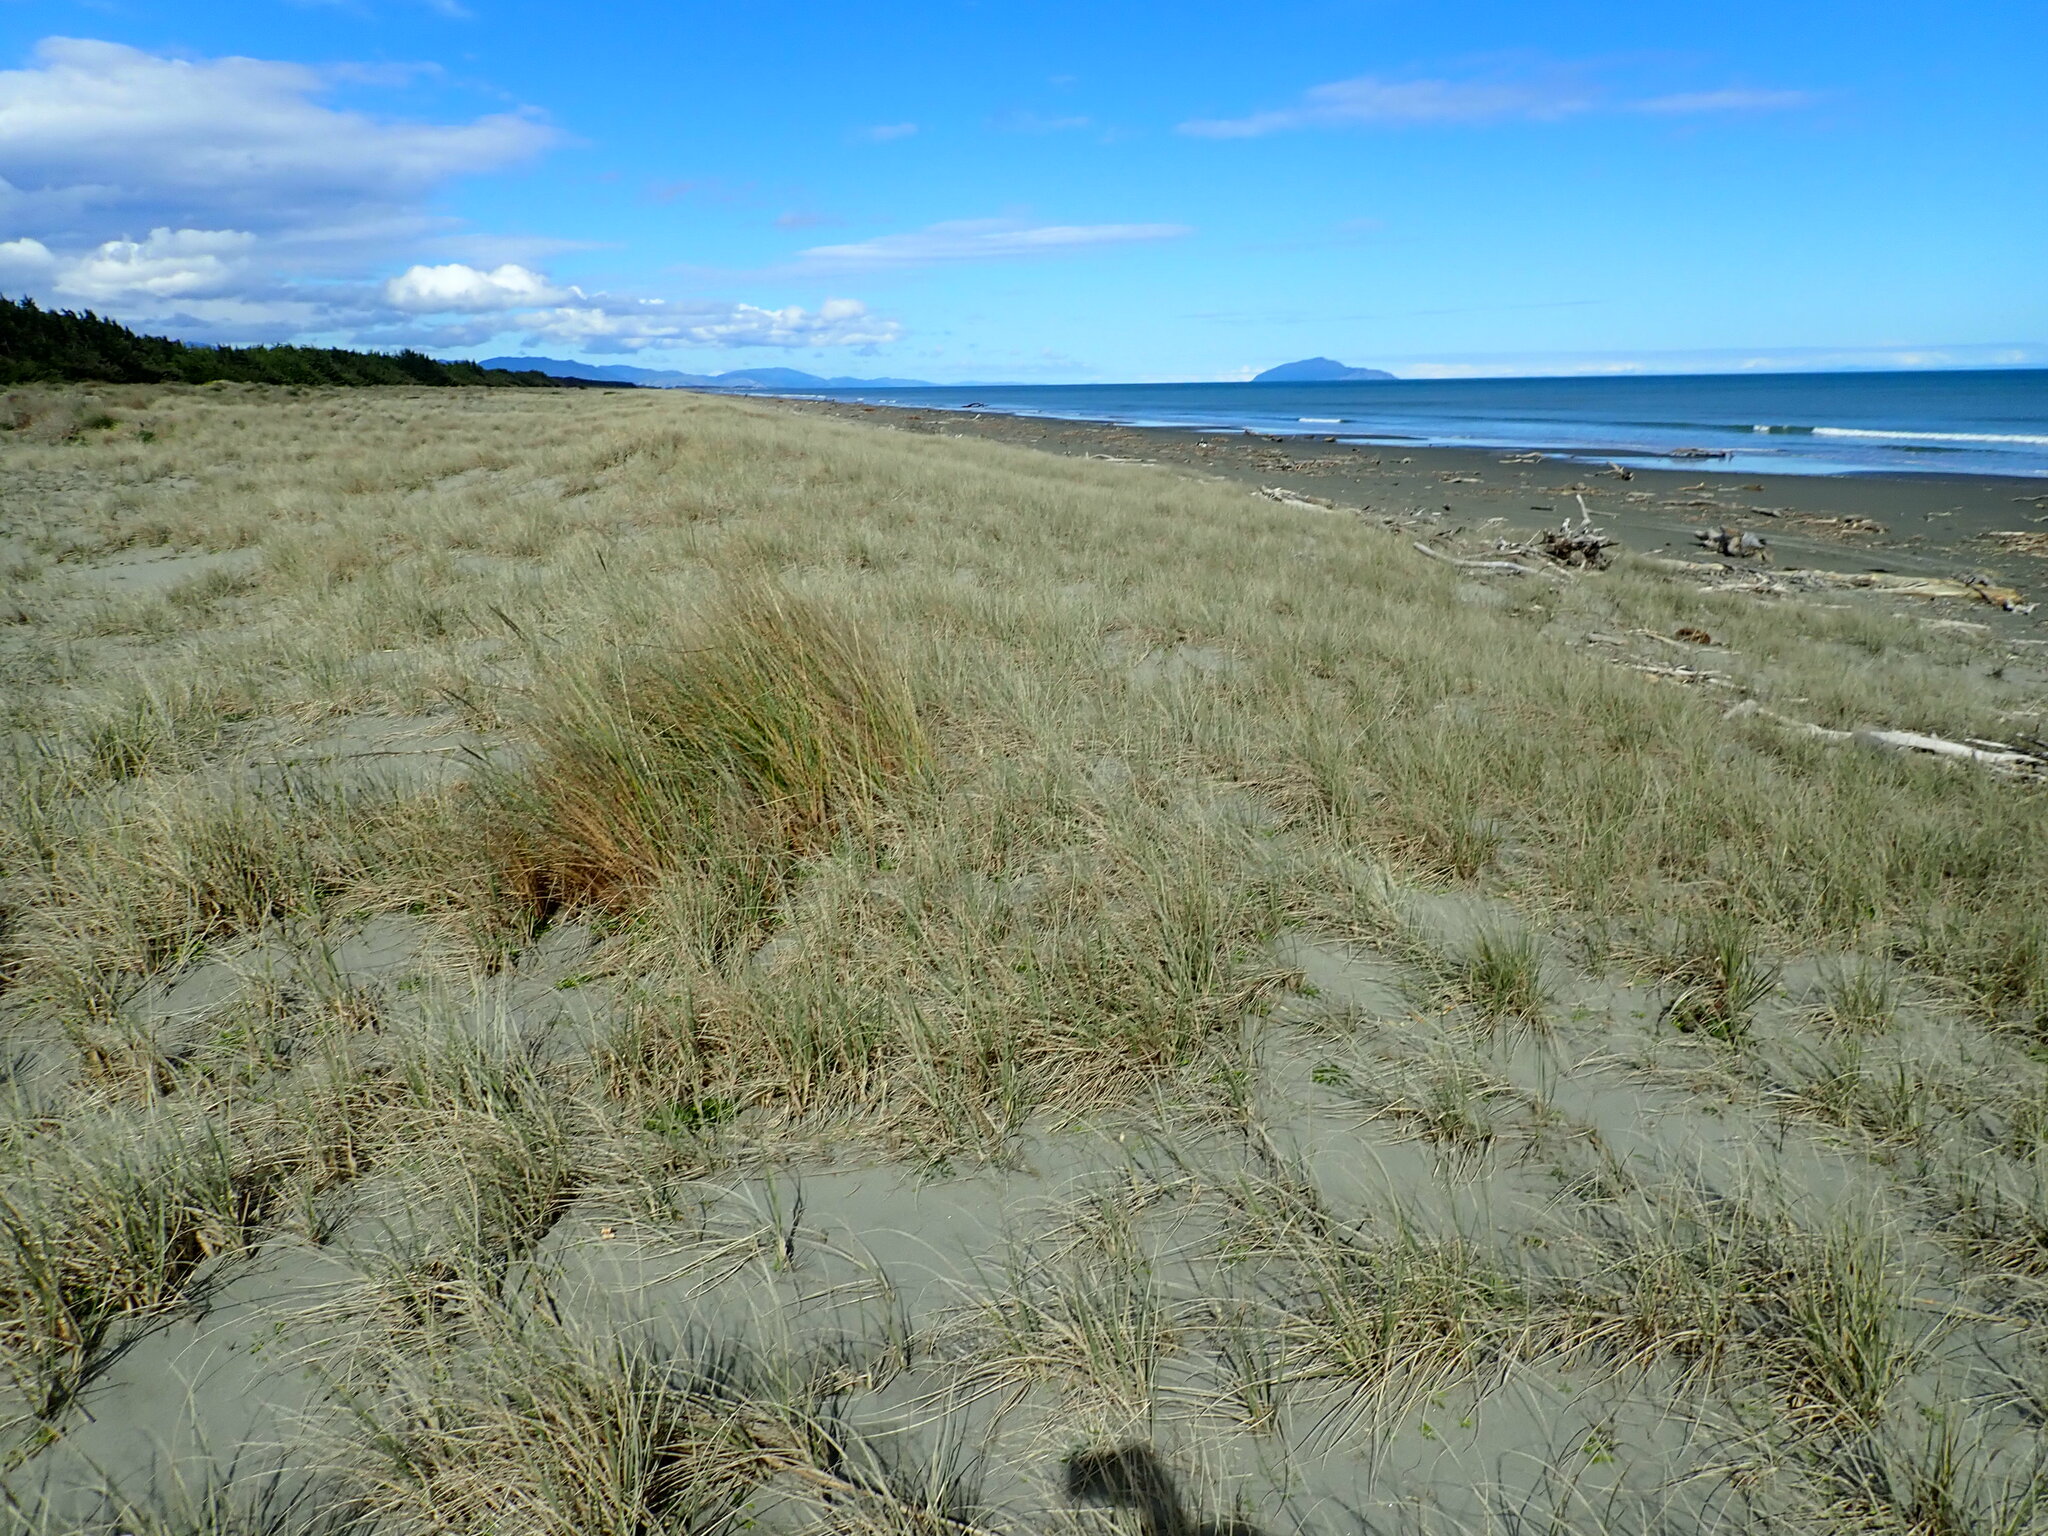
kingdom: Plantae
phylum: Tracheophyta
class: Liliopsida
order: Poales
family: Poaceae
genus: Calamagrostis
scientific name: Calamagrostis arenaria
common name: European beachgrass
